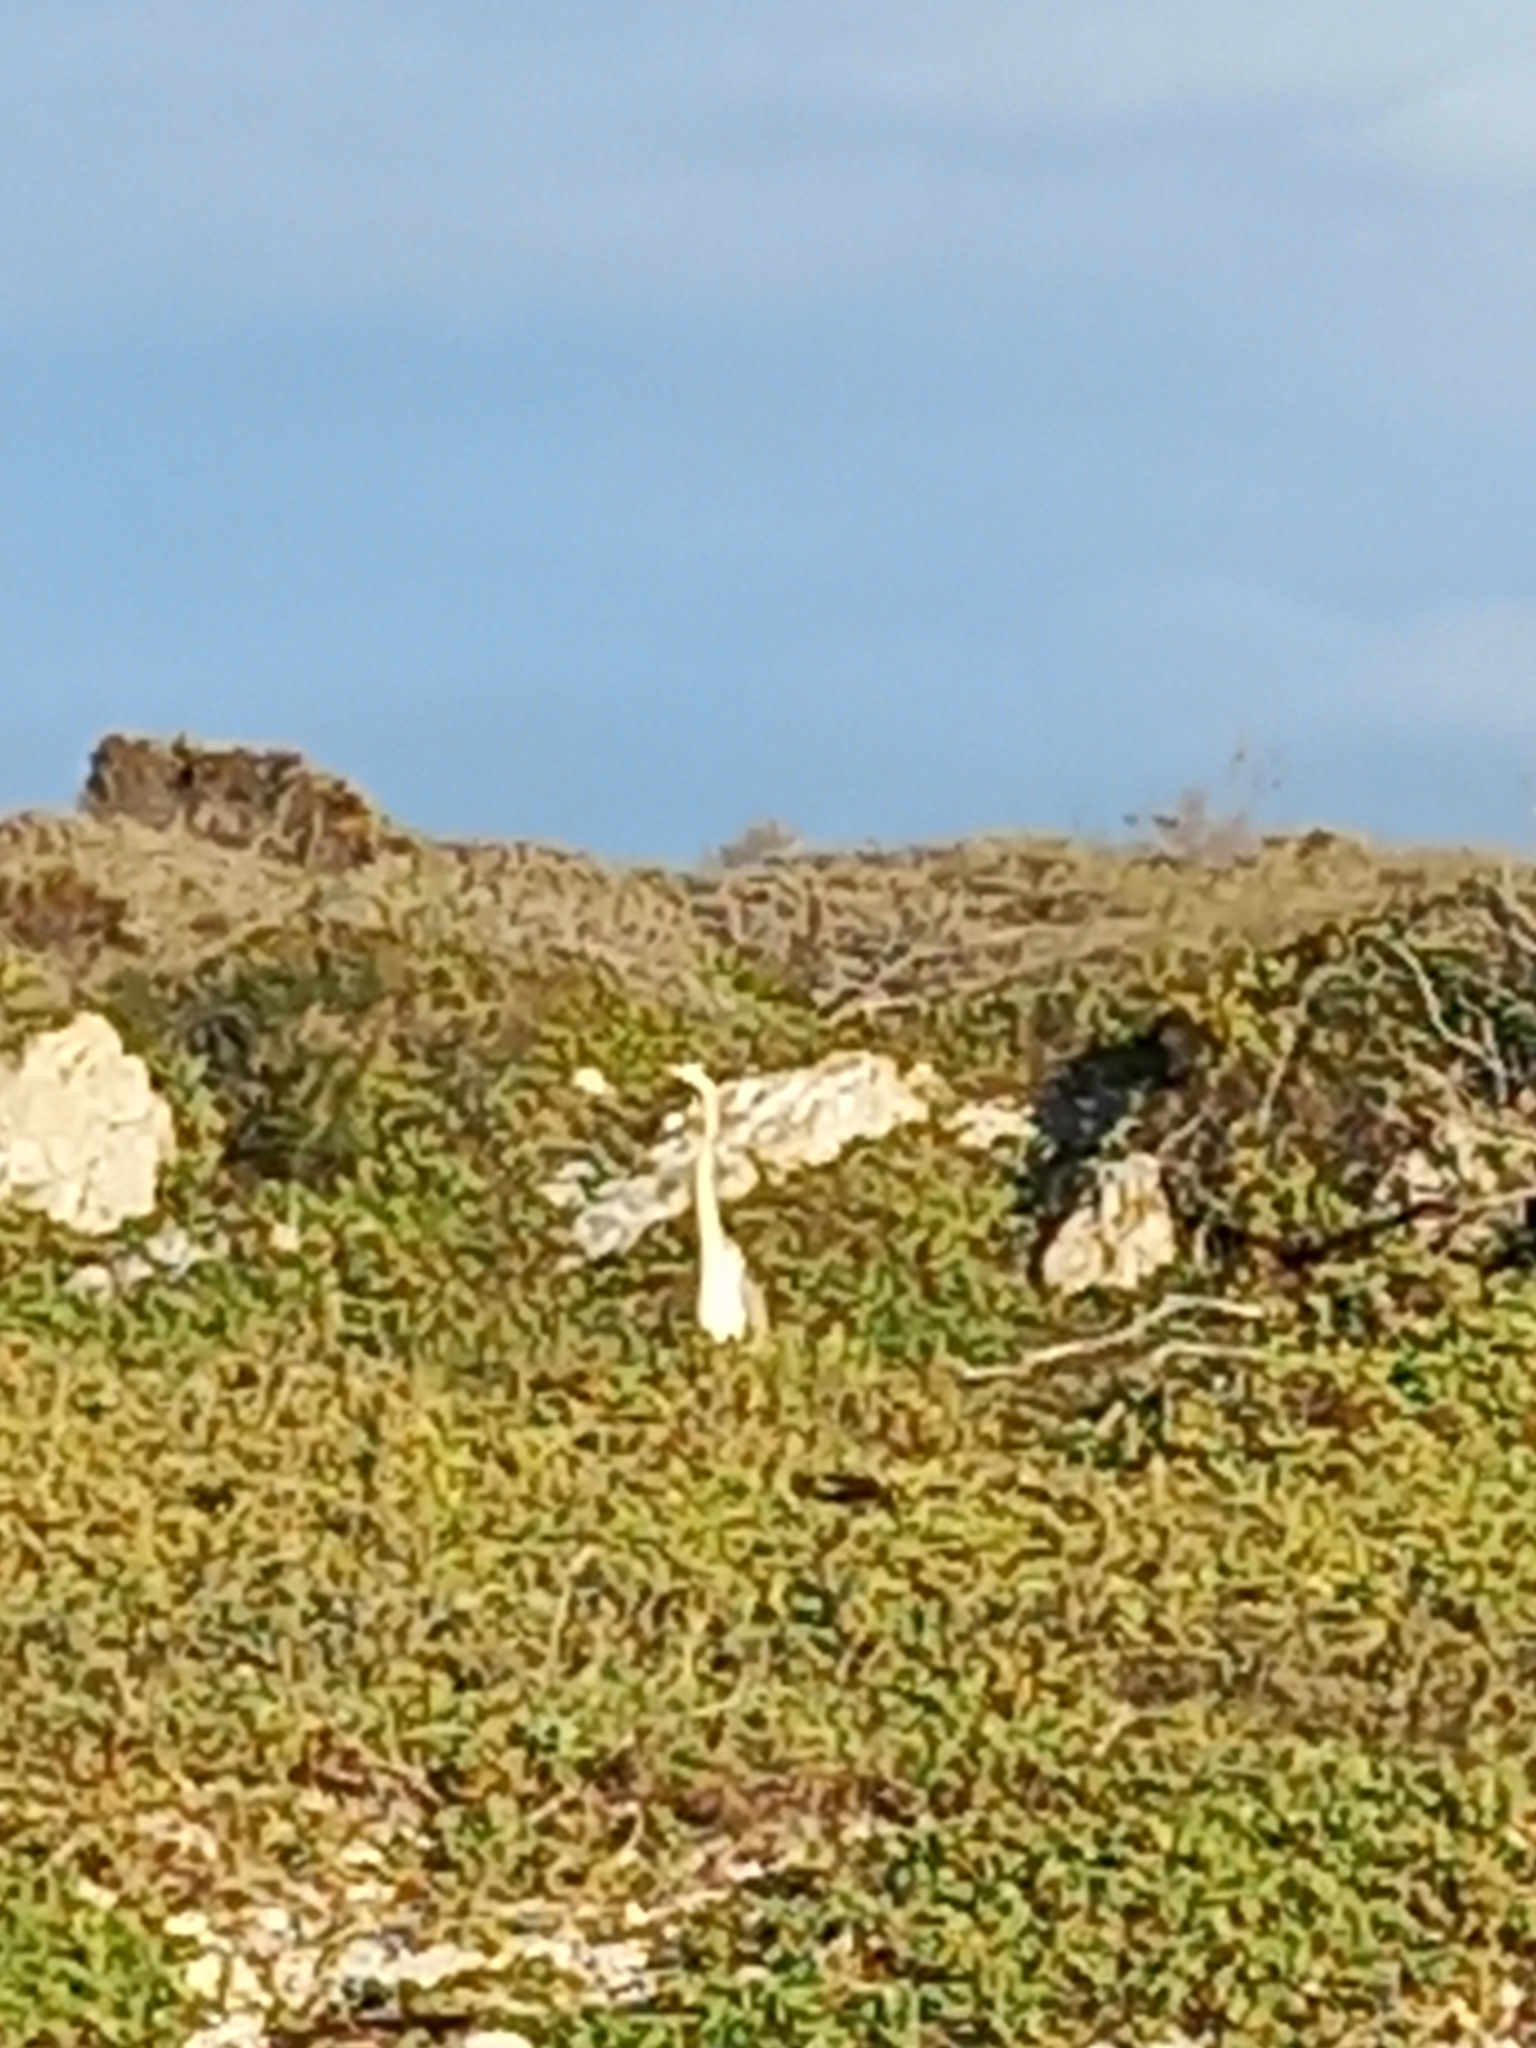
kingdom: Animalia
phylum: Chordata
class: Aves
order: Pelecaniformes
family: Ardeidae
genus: Ardea
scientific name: Ardea cinerea
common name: Grey heron
